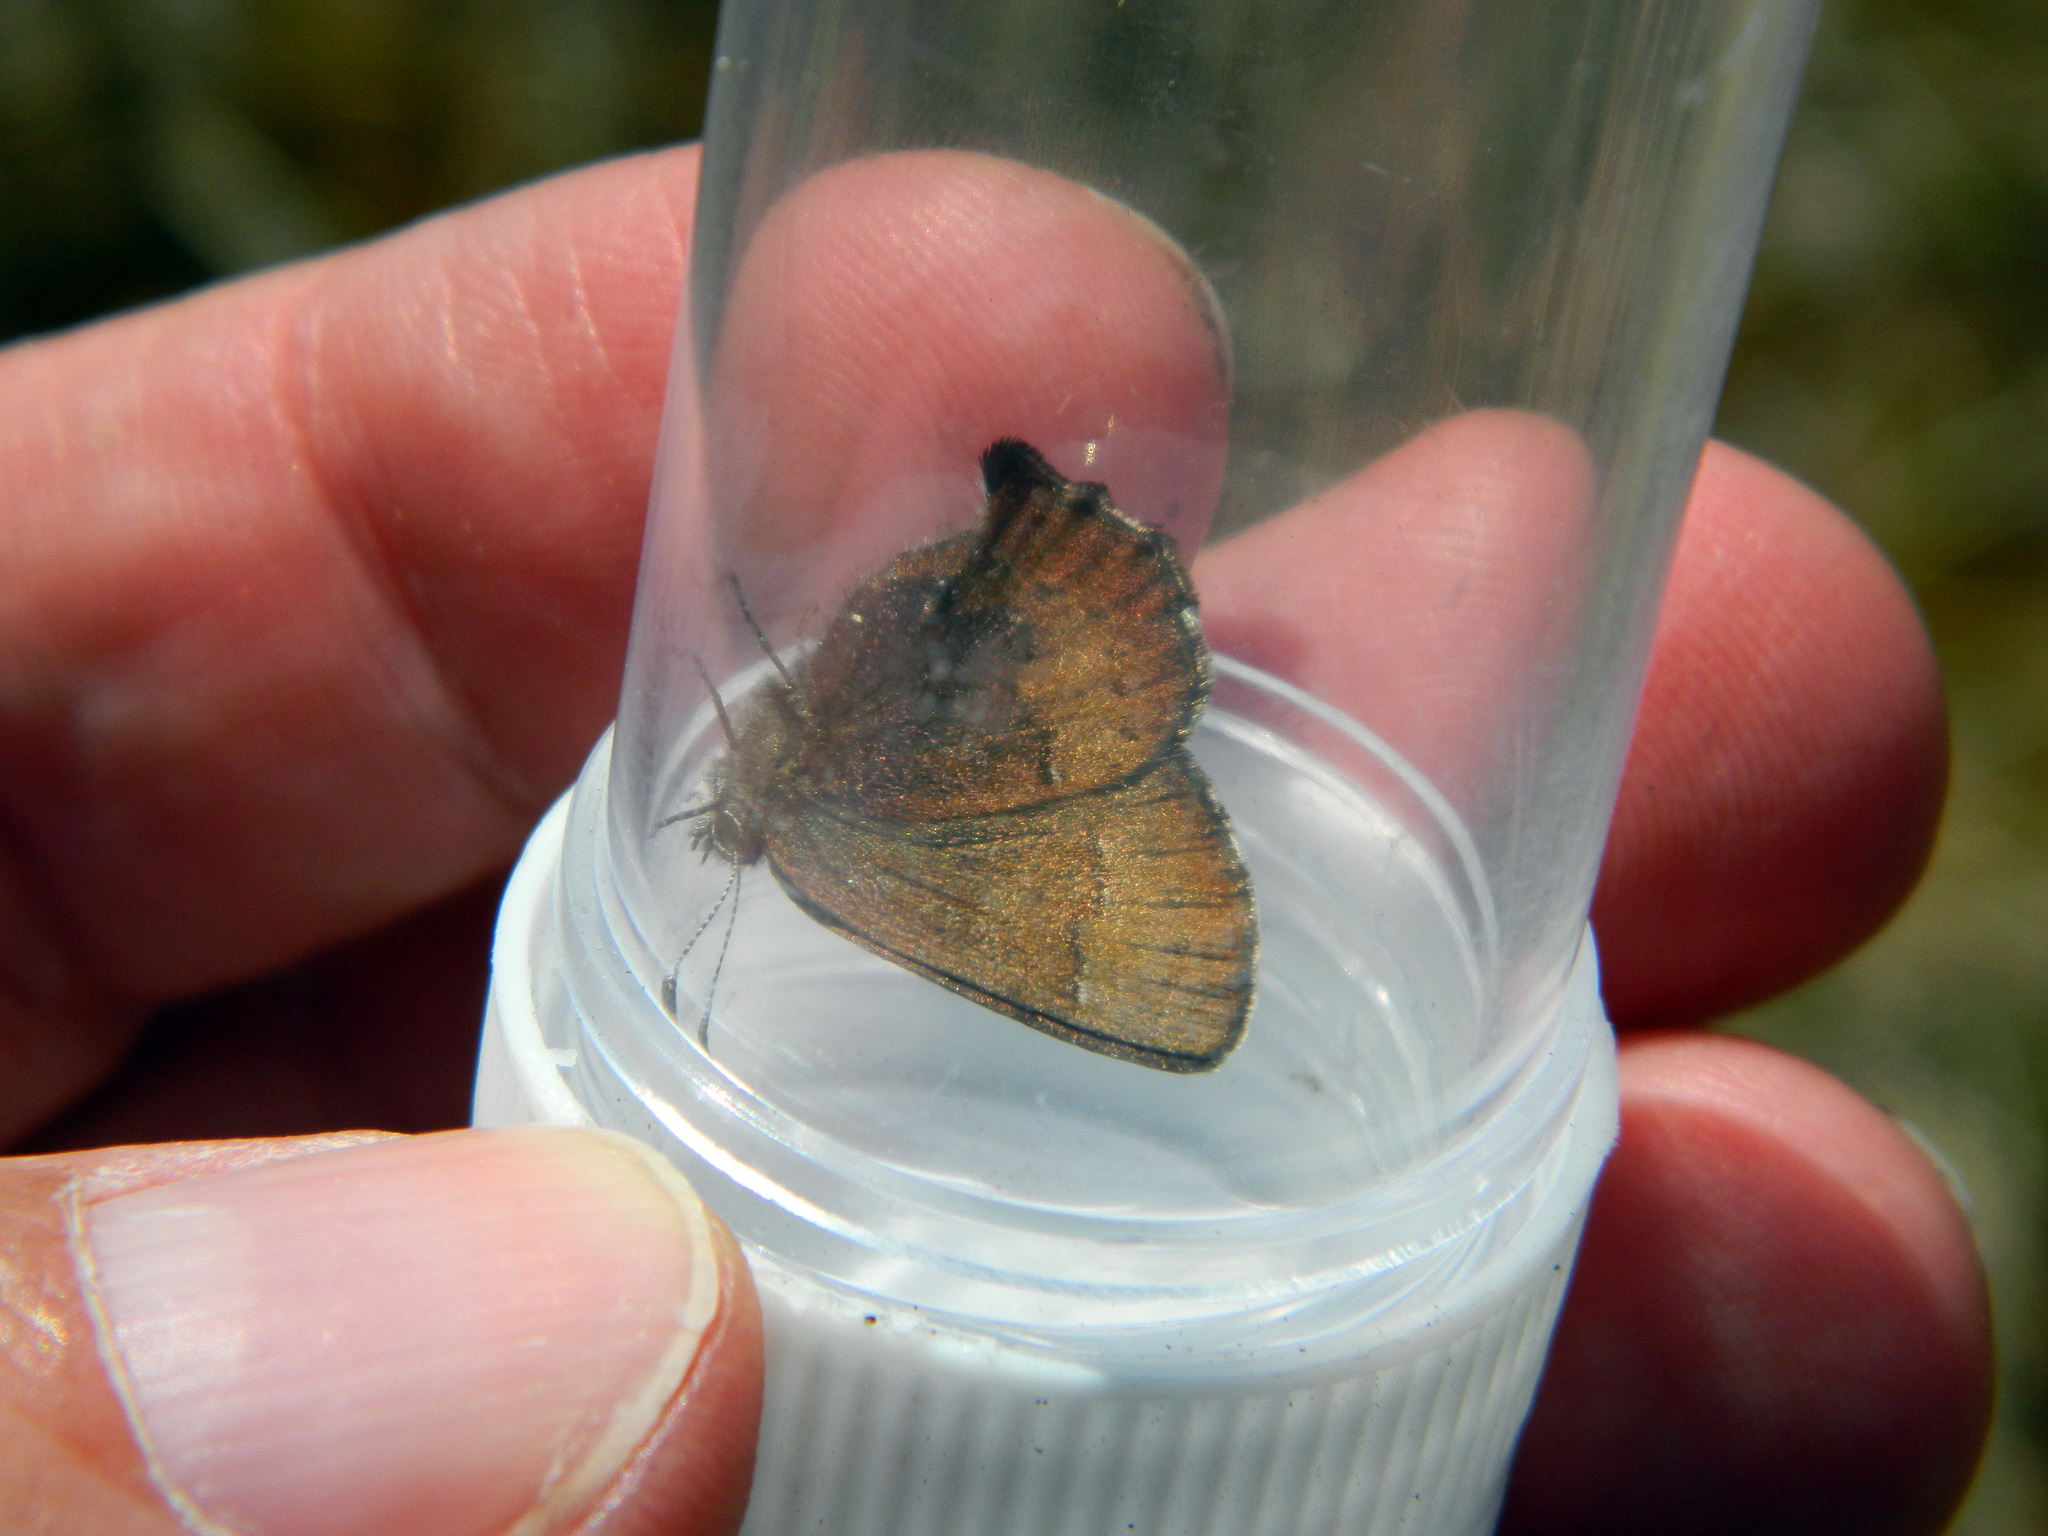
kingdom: Animalia
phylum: Arthropoda
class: Insecta
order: Lepidoptera
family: Lycaenidae
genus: Incisalia
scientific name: Incisalia irioides
